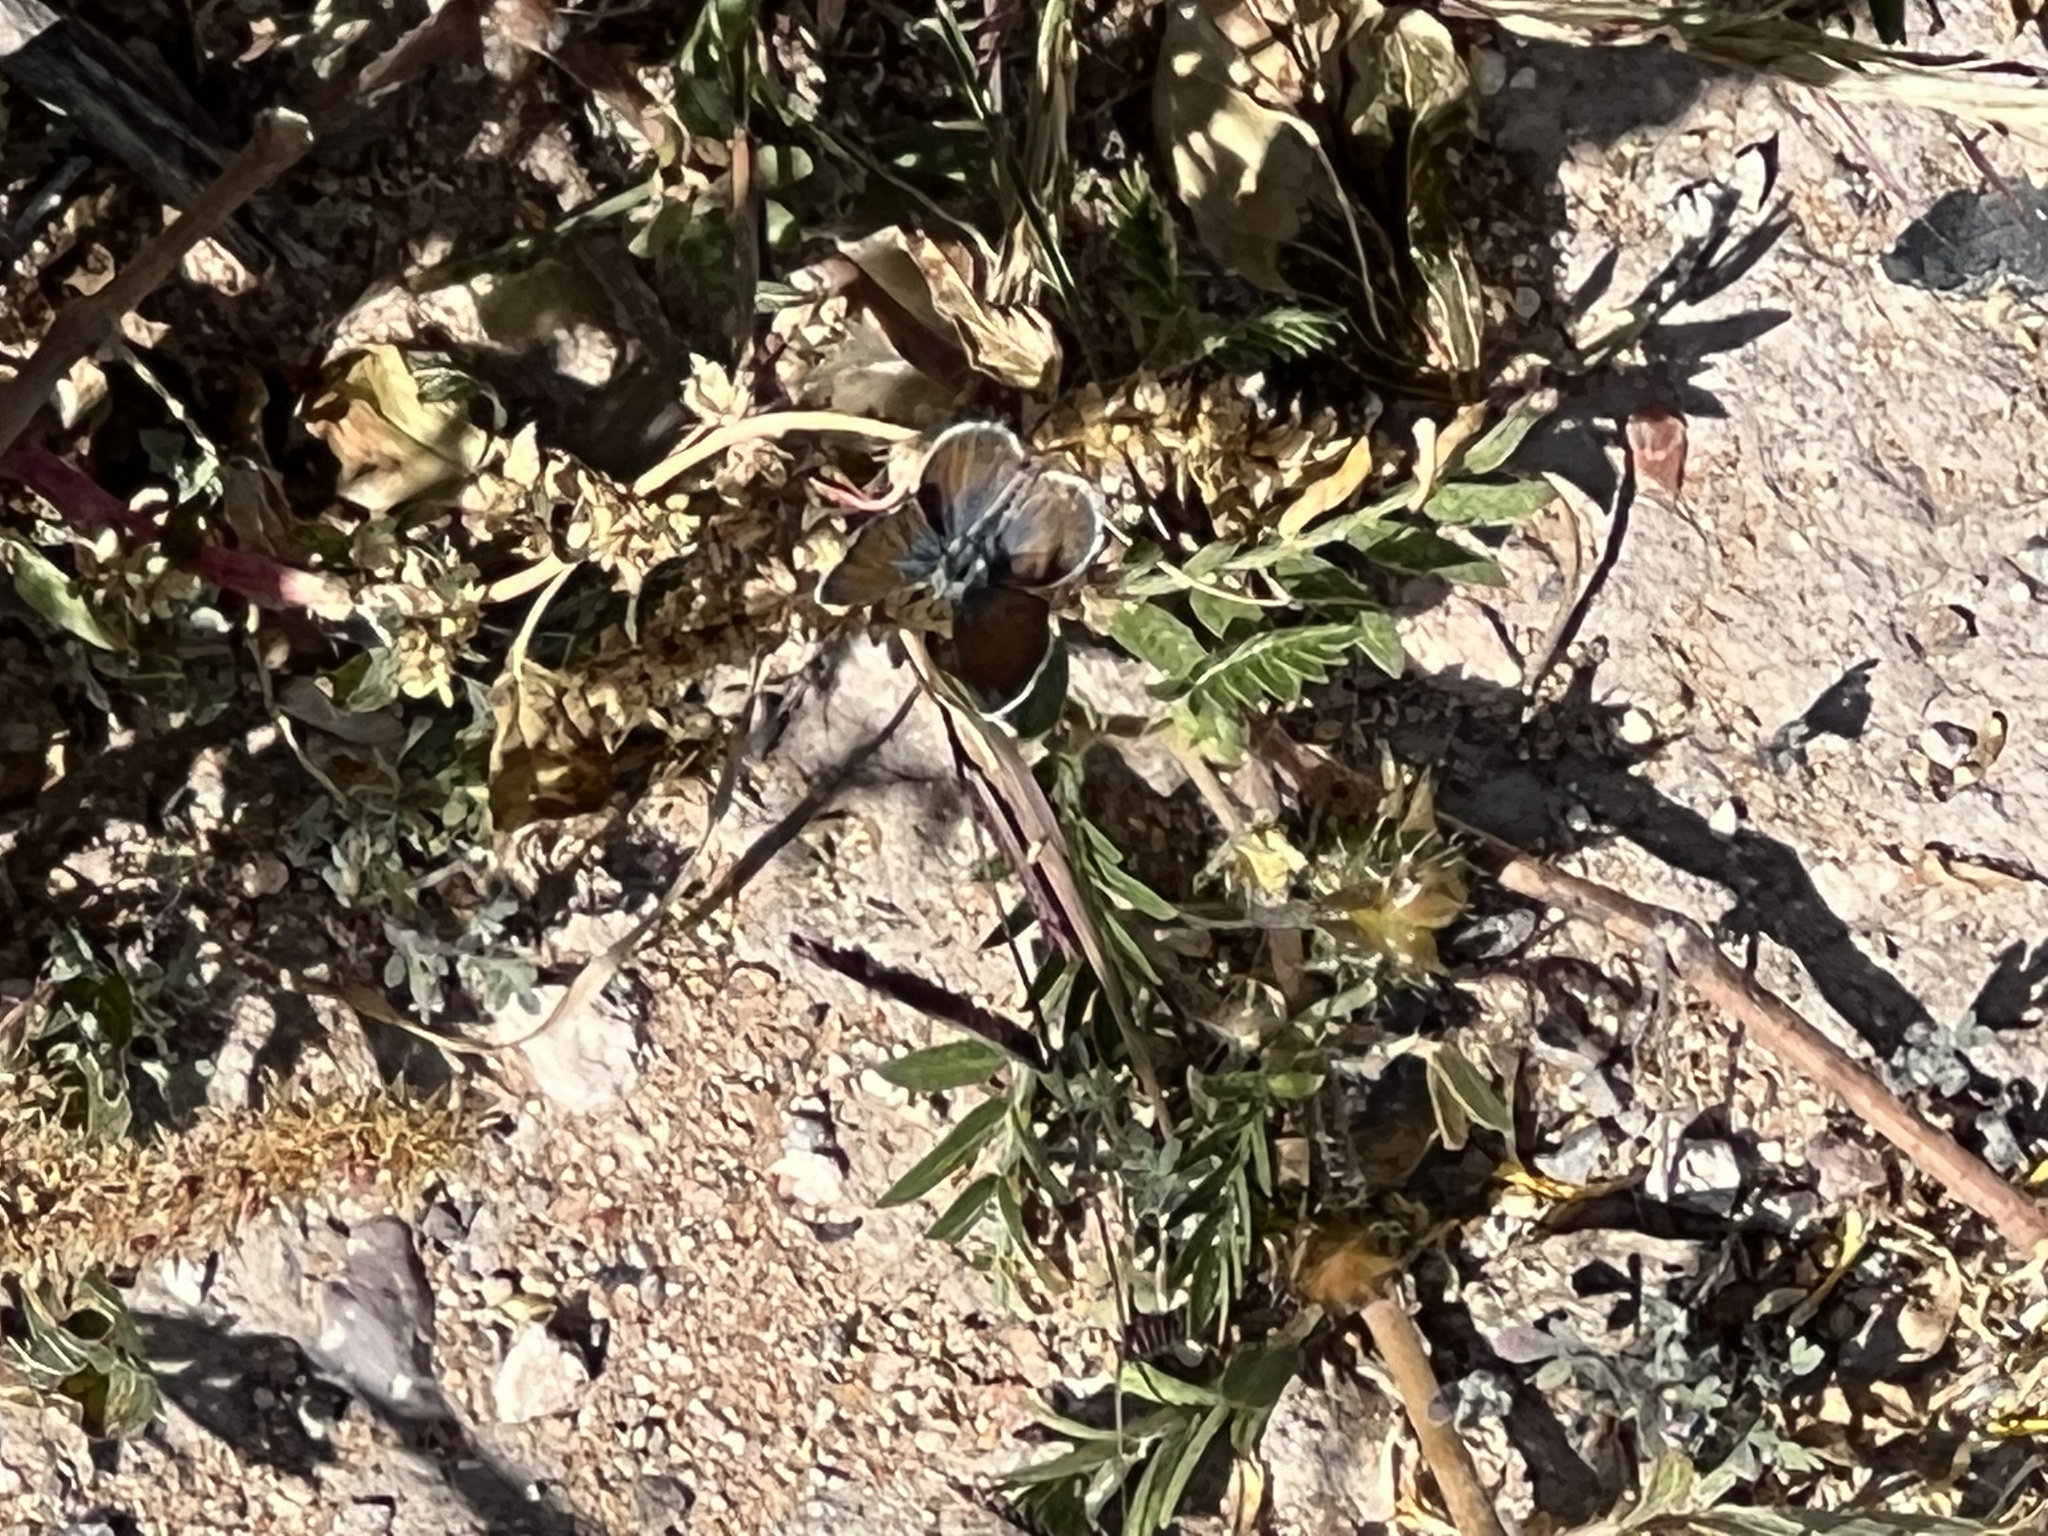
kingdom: Animalia
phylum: Arthropoda
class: Insecta
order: Lepidoptera
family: Lycaenidae
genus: Brephidium
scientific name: Brephidium exilis
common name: Pygmy blue
